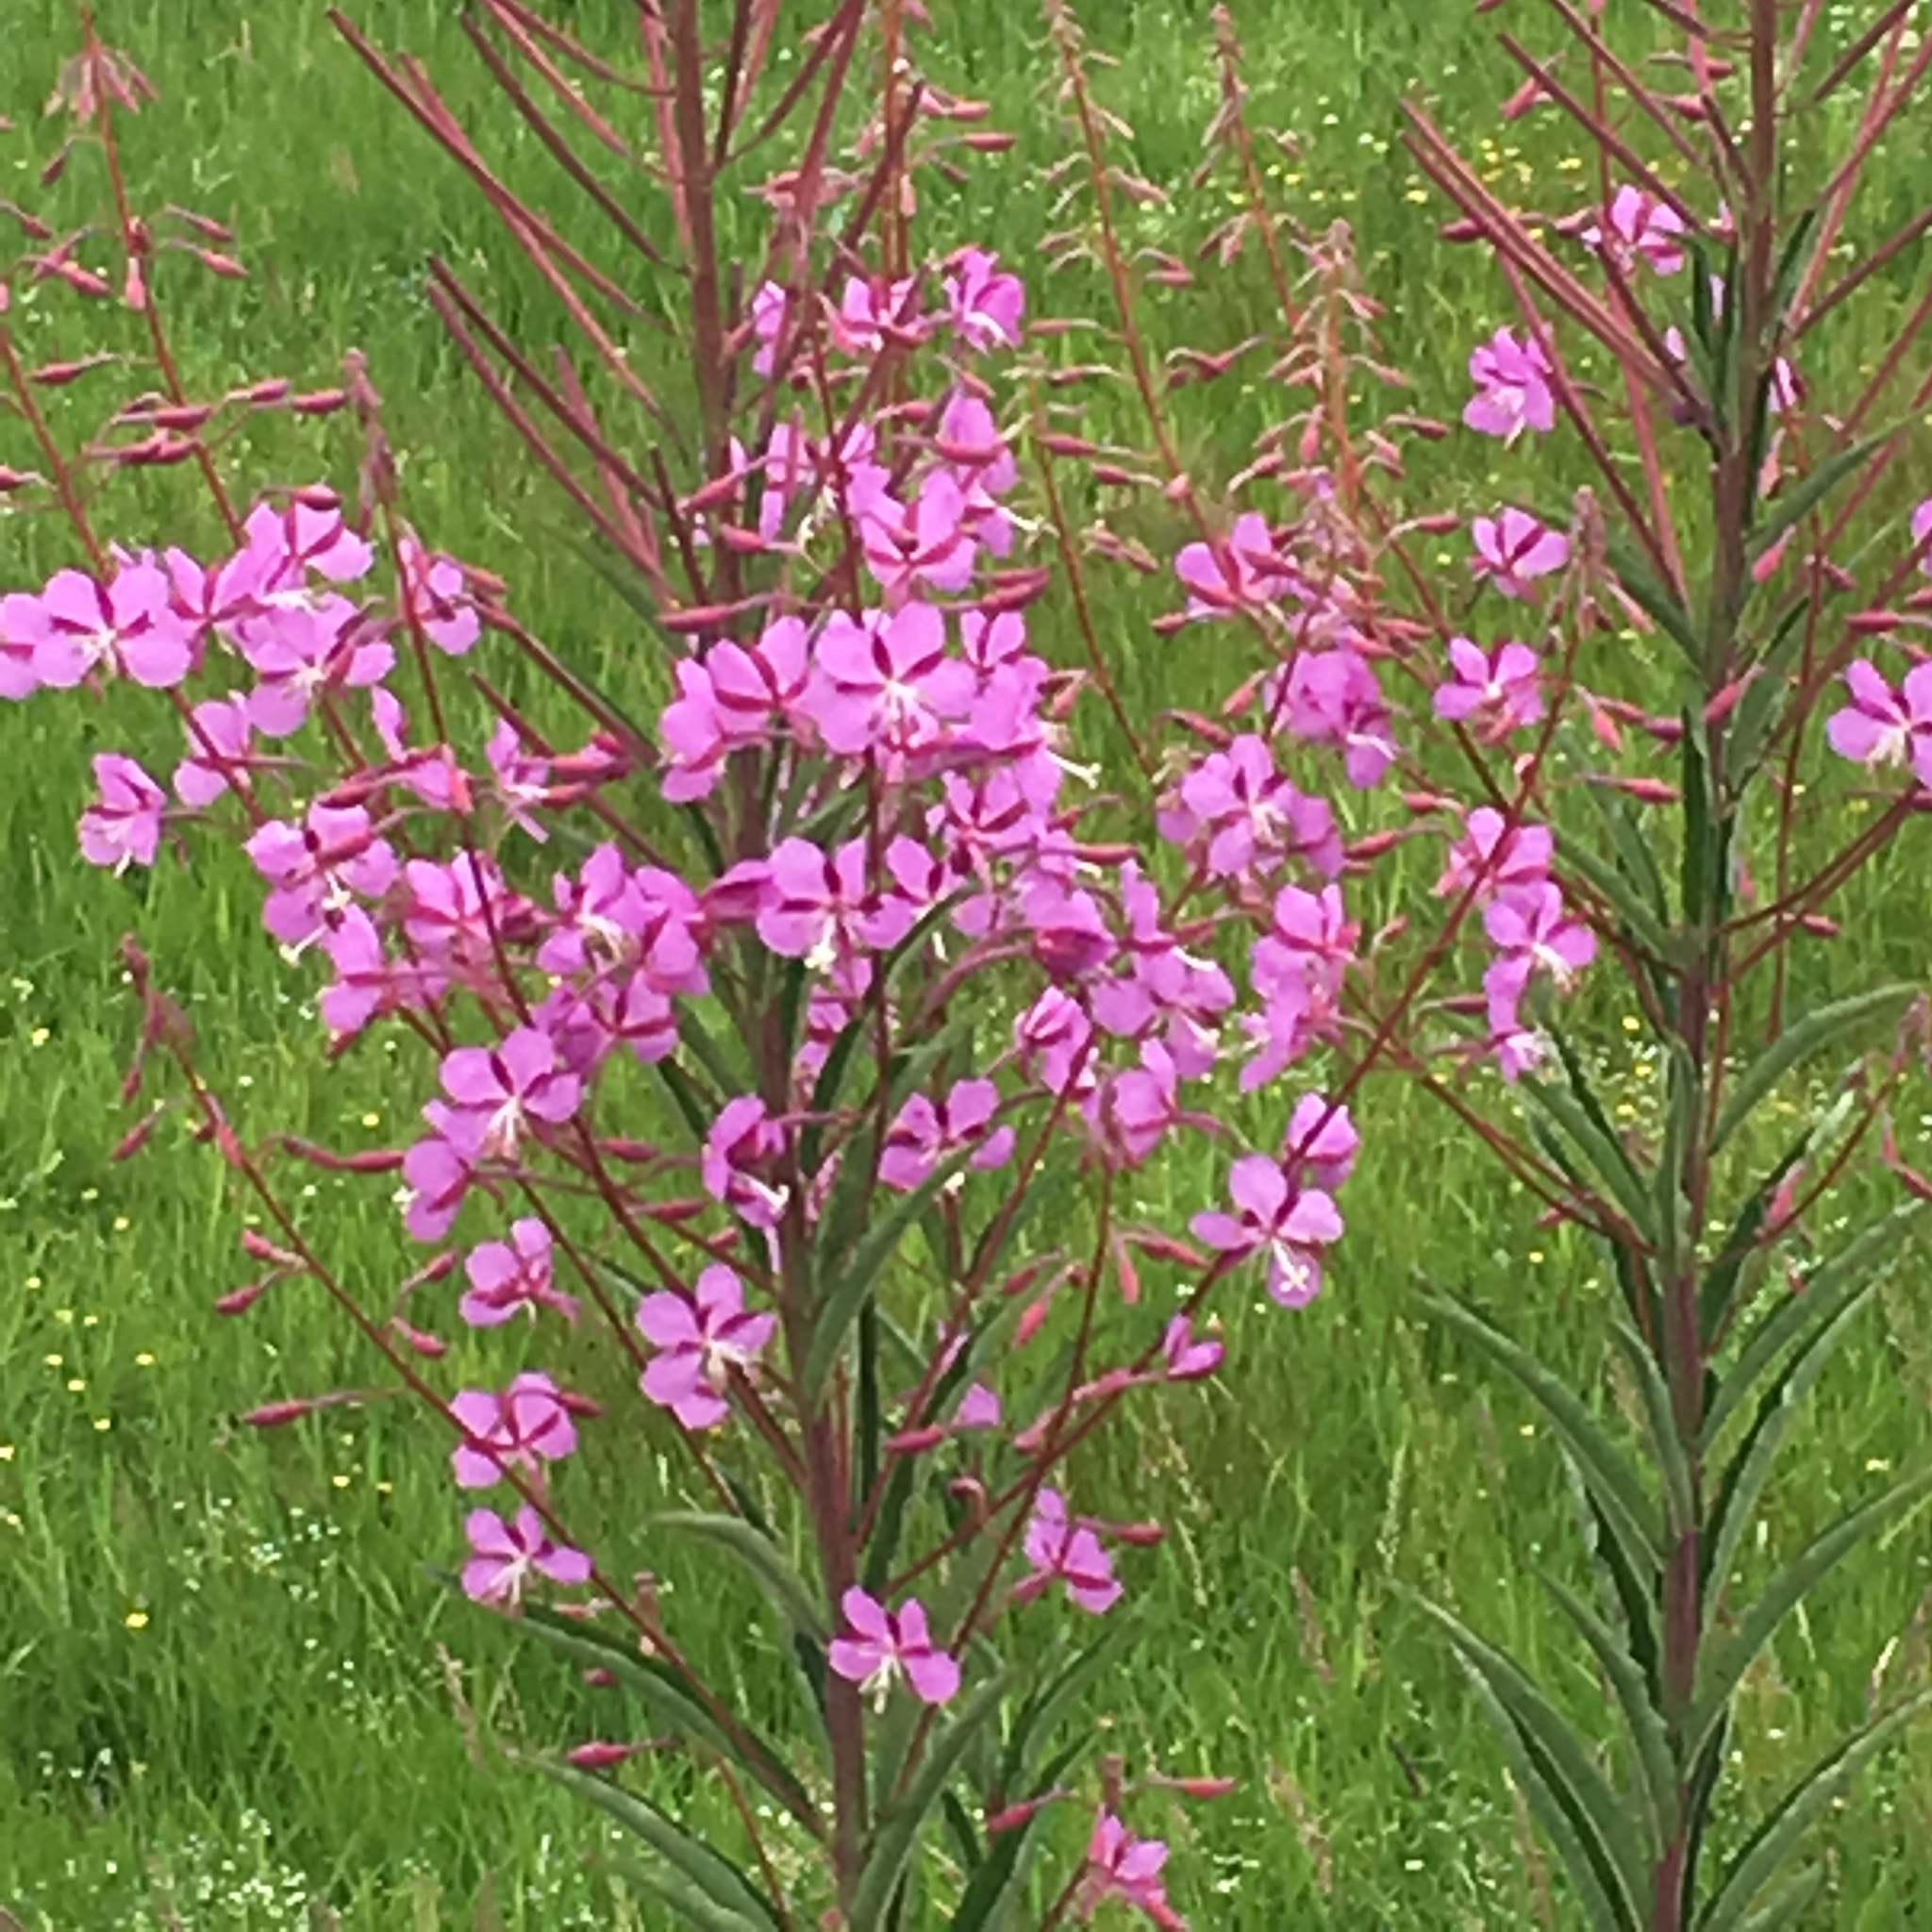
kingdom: Plantae
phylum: Tracheophyta
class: Magnoliopsida
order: Myrtales
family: Onagraceae
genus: Chamaenerion
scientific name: Chamaenerion angustifolium
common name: Fireweed
